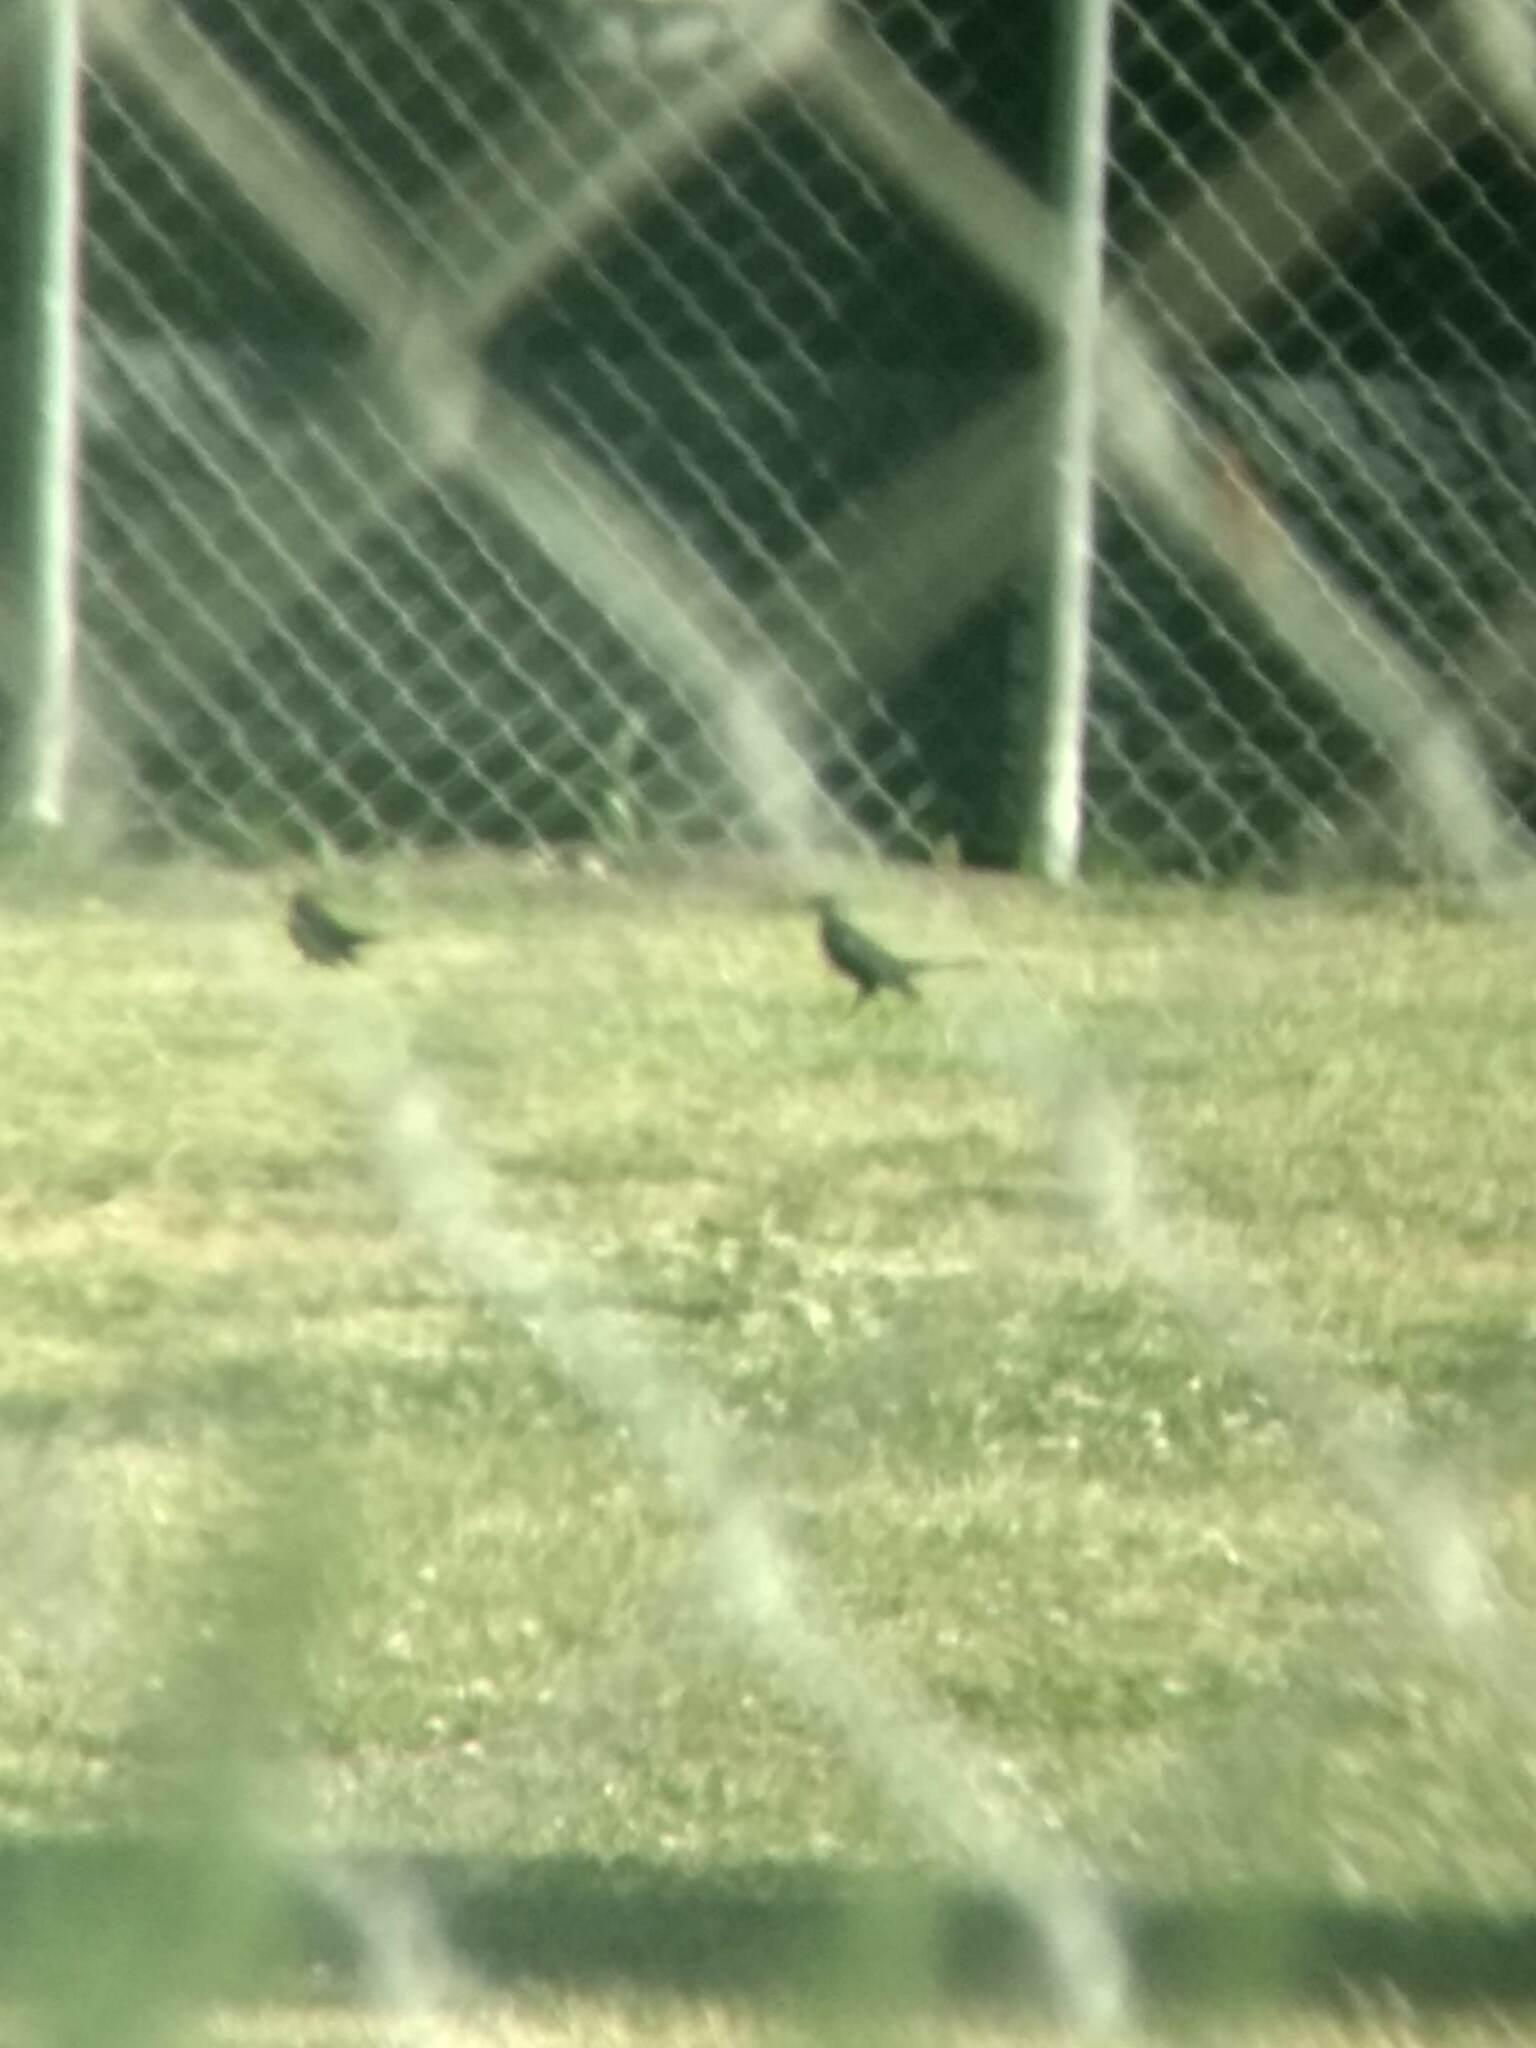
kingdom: Animalia
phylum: Chordata
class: Aves
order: Passeriformes
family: Icteridae
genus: Euphagus
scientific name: Euphagus cyanocephalus
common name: Brewer's blackbird
